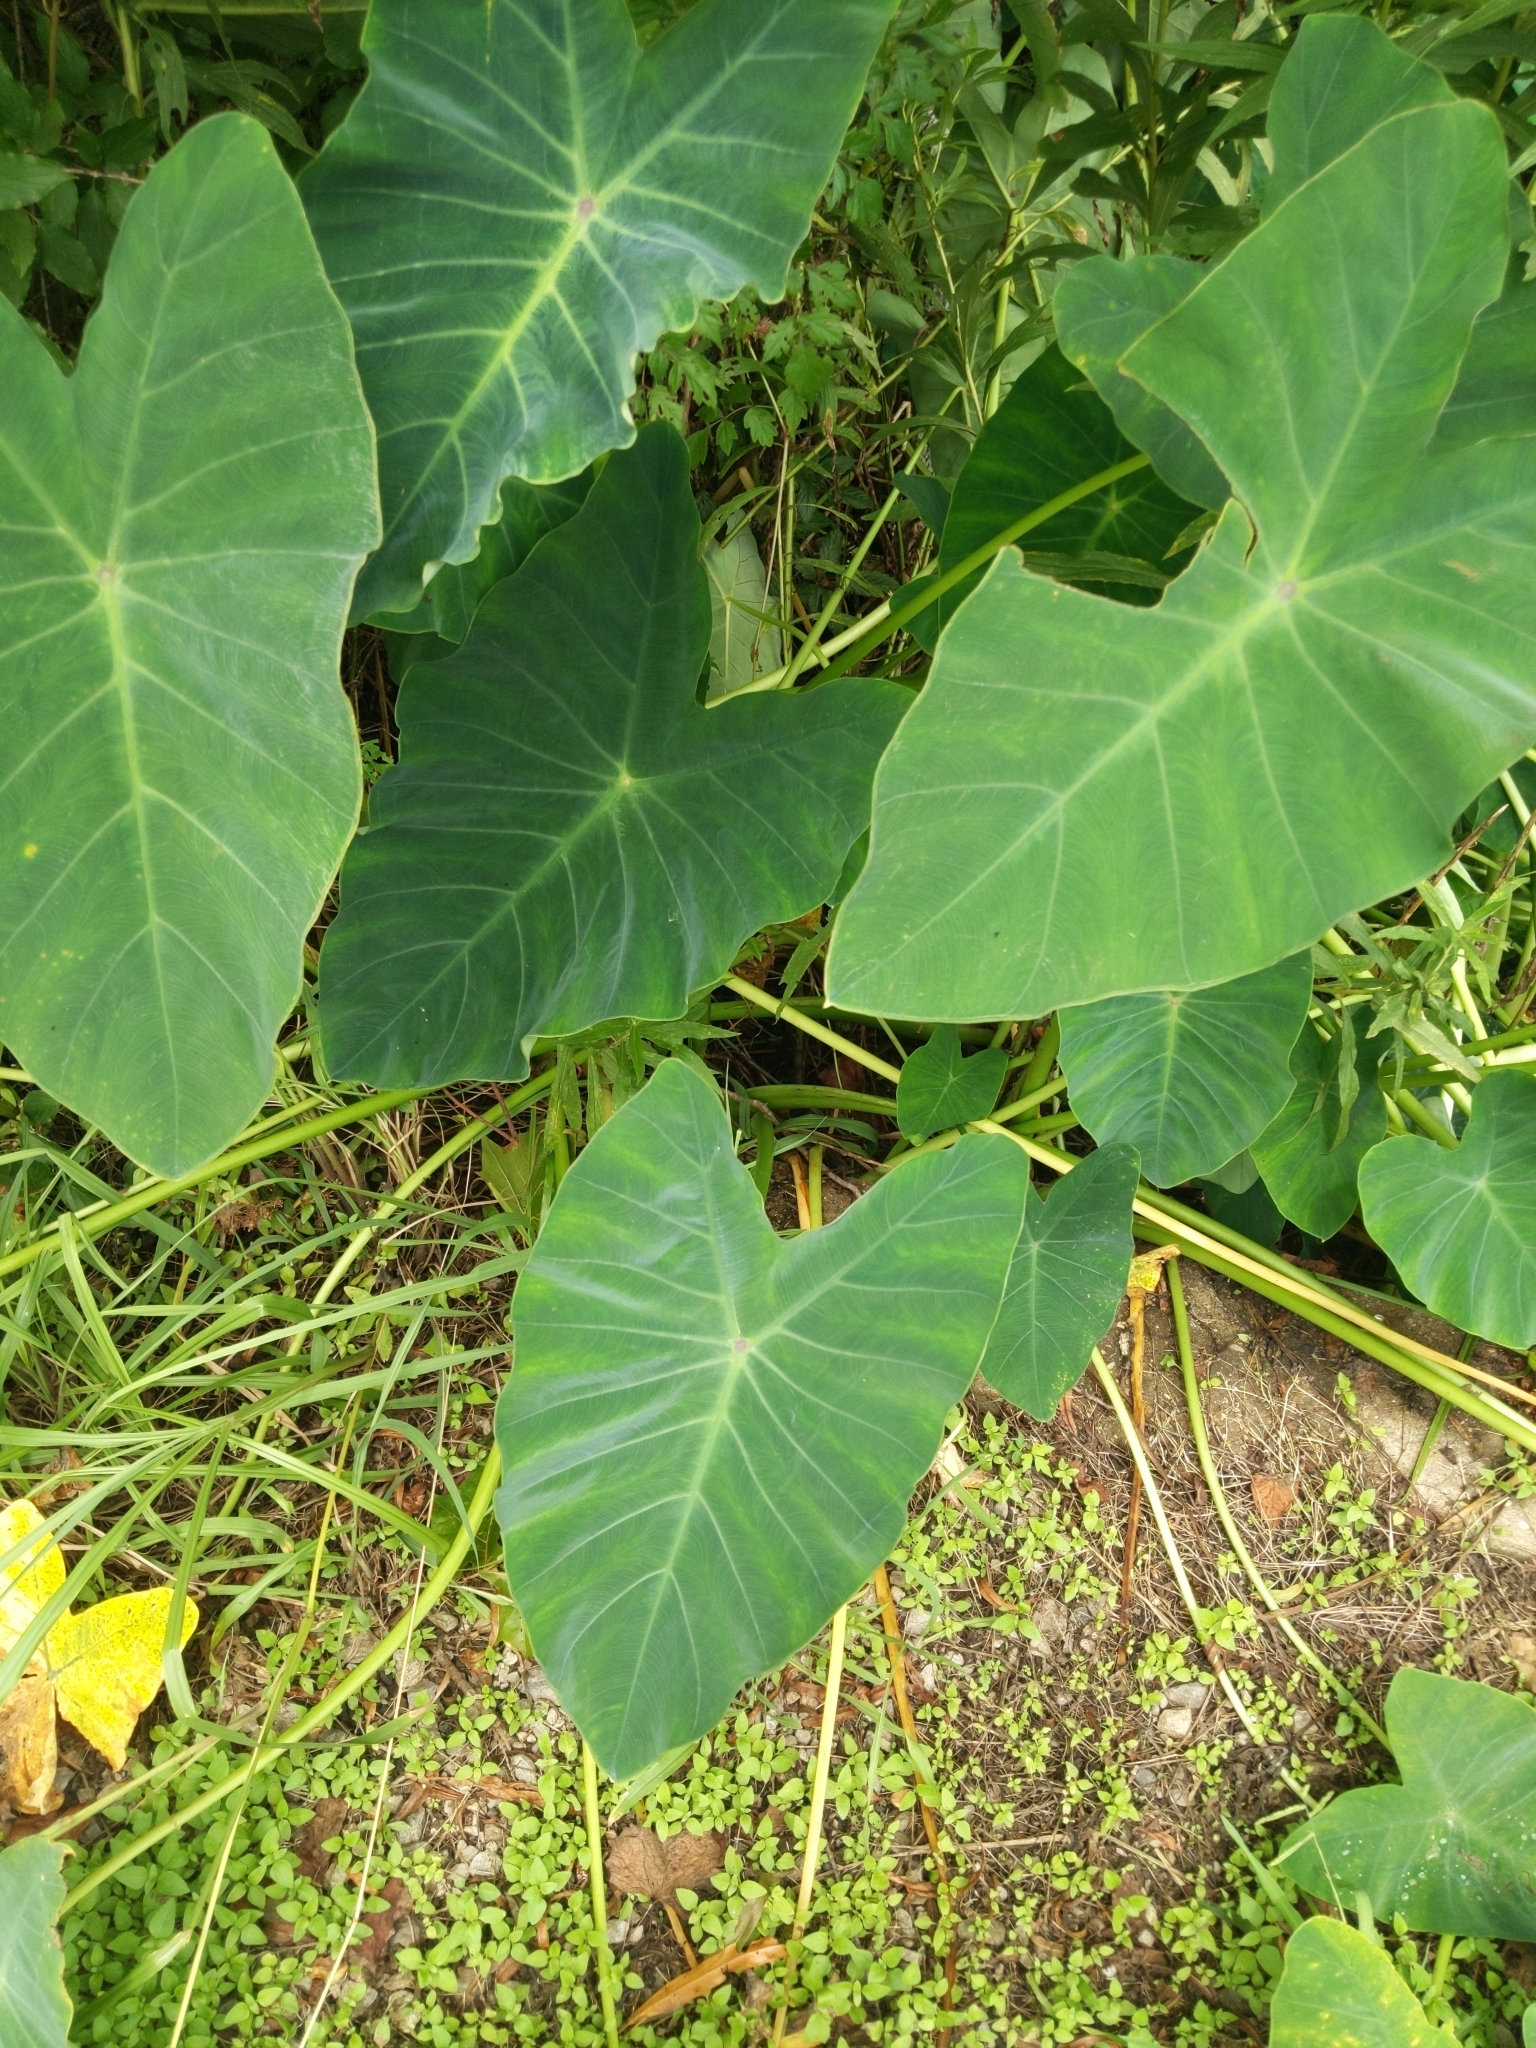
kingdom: Plantae
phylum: Tracheophyta
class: Liliopsida
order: Alismatales
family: Araceae
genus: Colocasia
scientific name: Colocasia esculenta
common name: Taro
